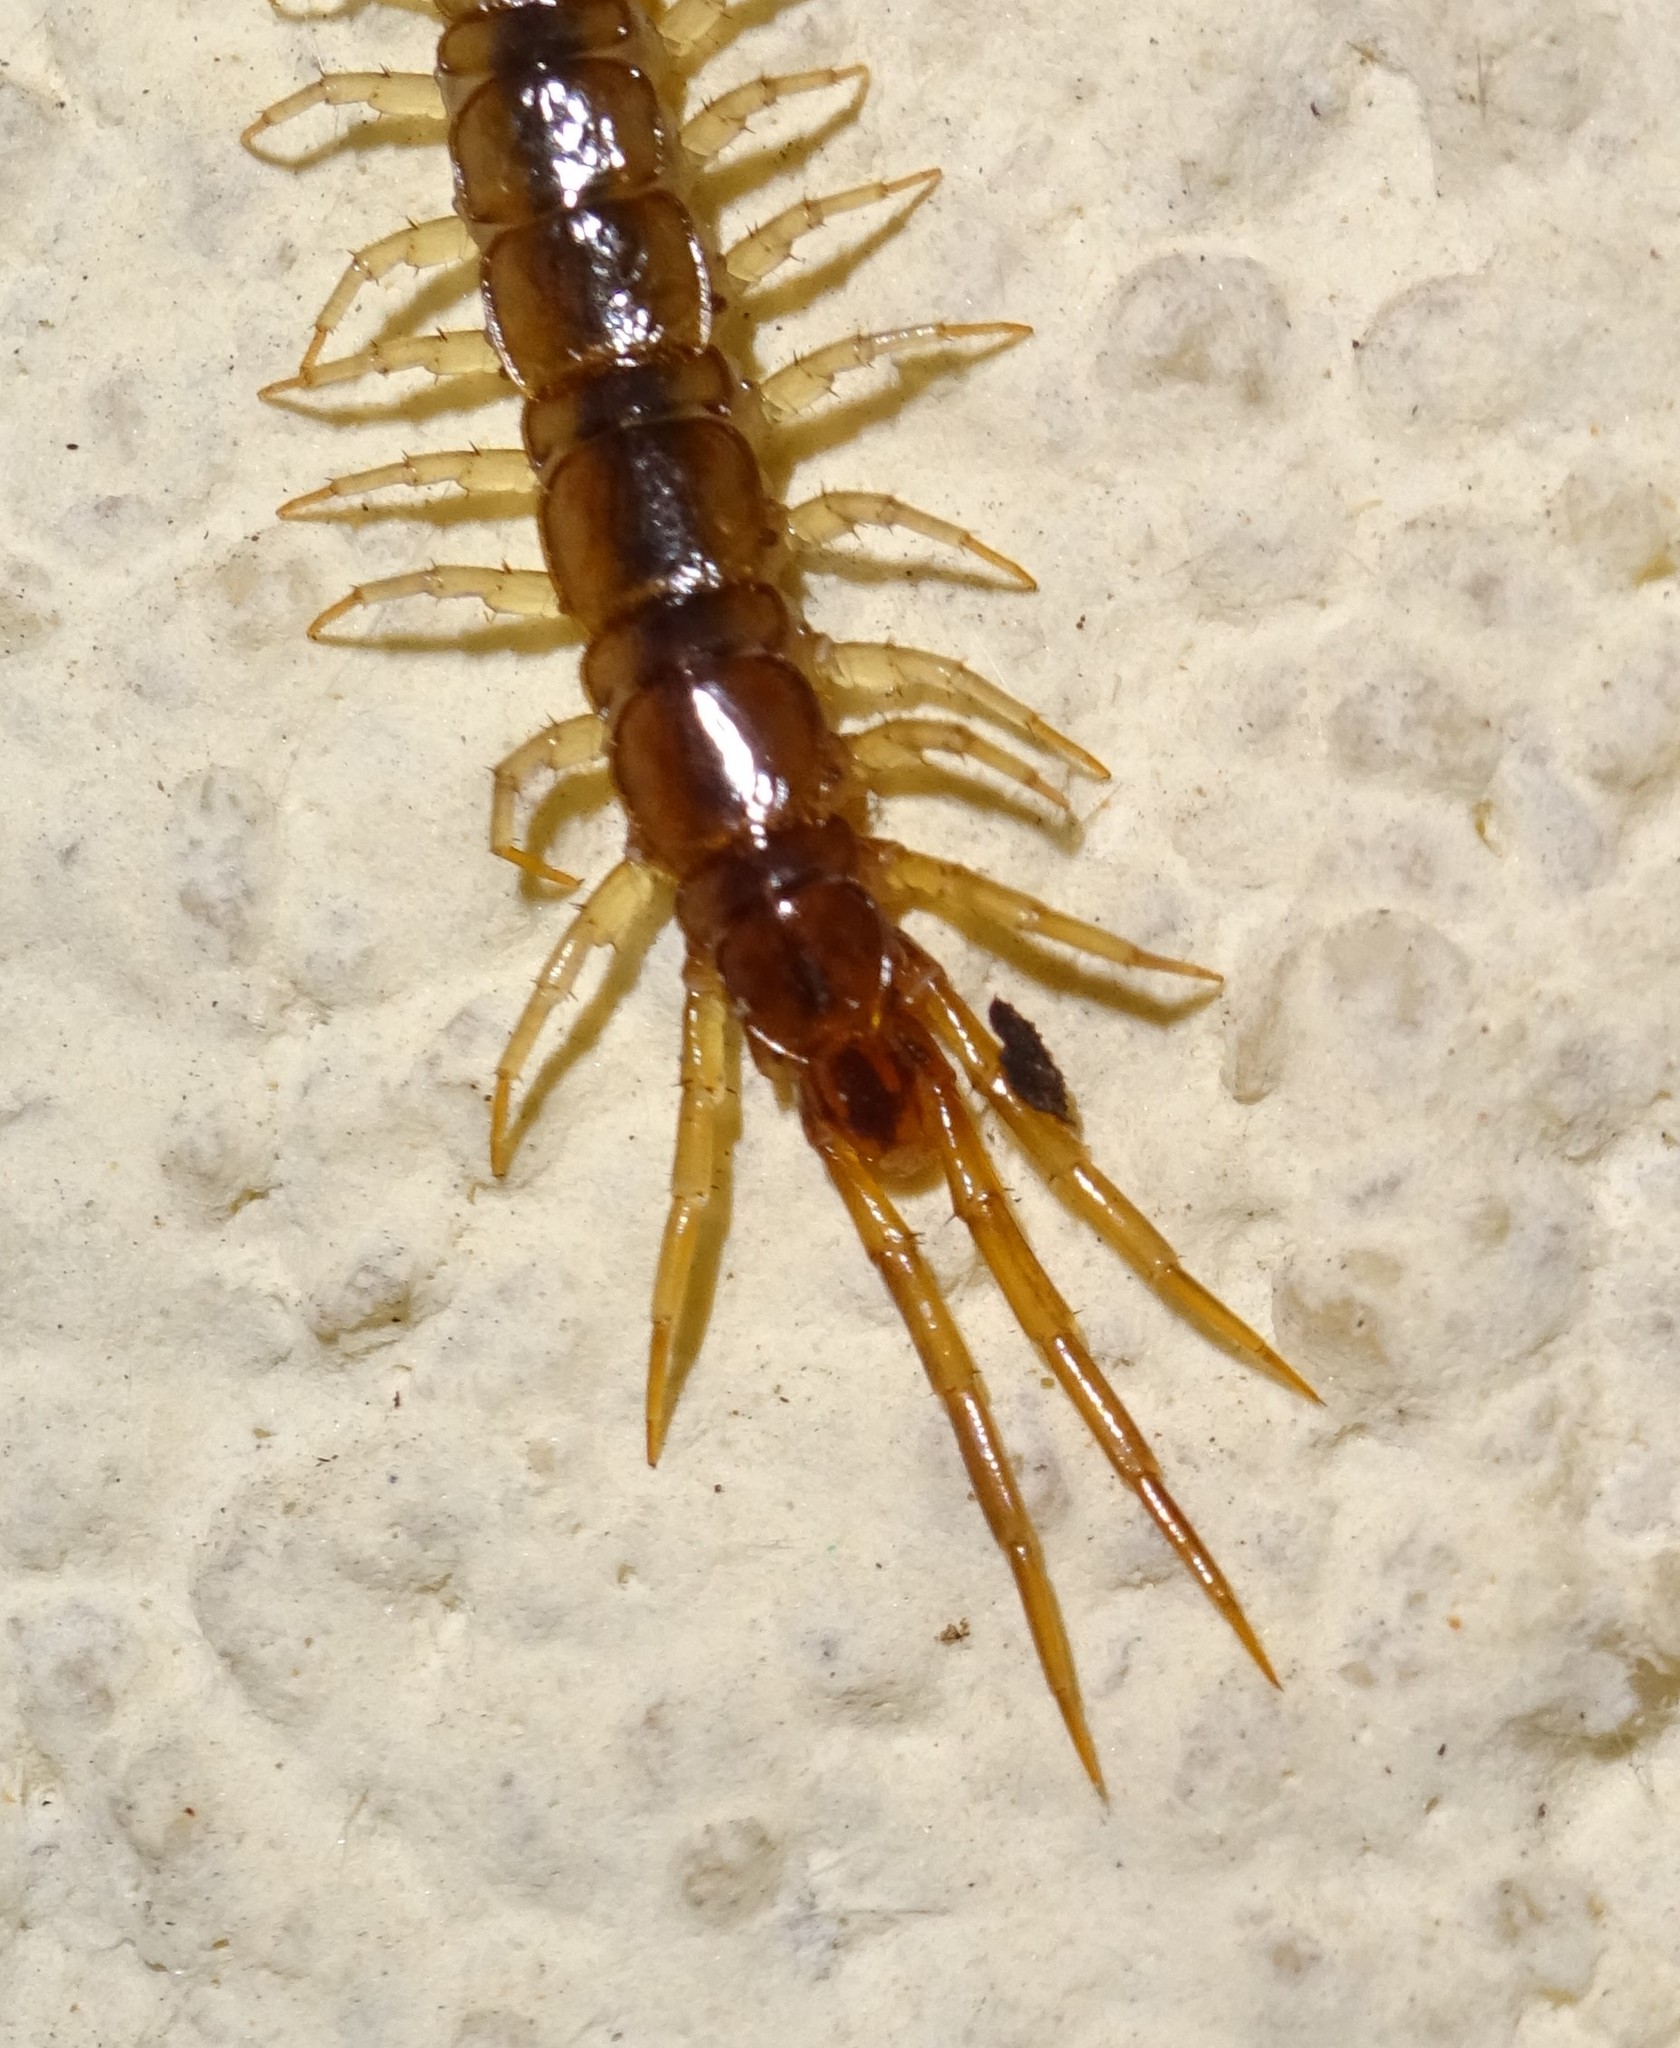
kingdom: Animalia
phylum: Arthropoda
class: Chilopoda
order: Lithobiomorpha
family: Lithobiidae
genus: Lithobius
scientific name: Lithobius melanops
